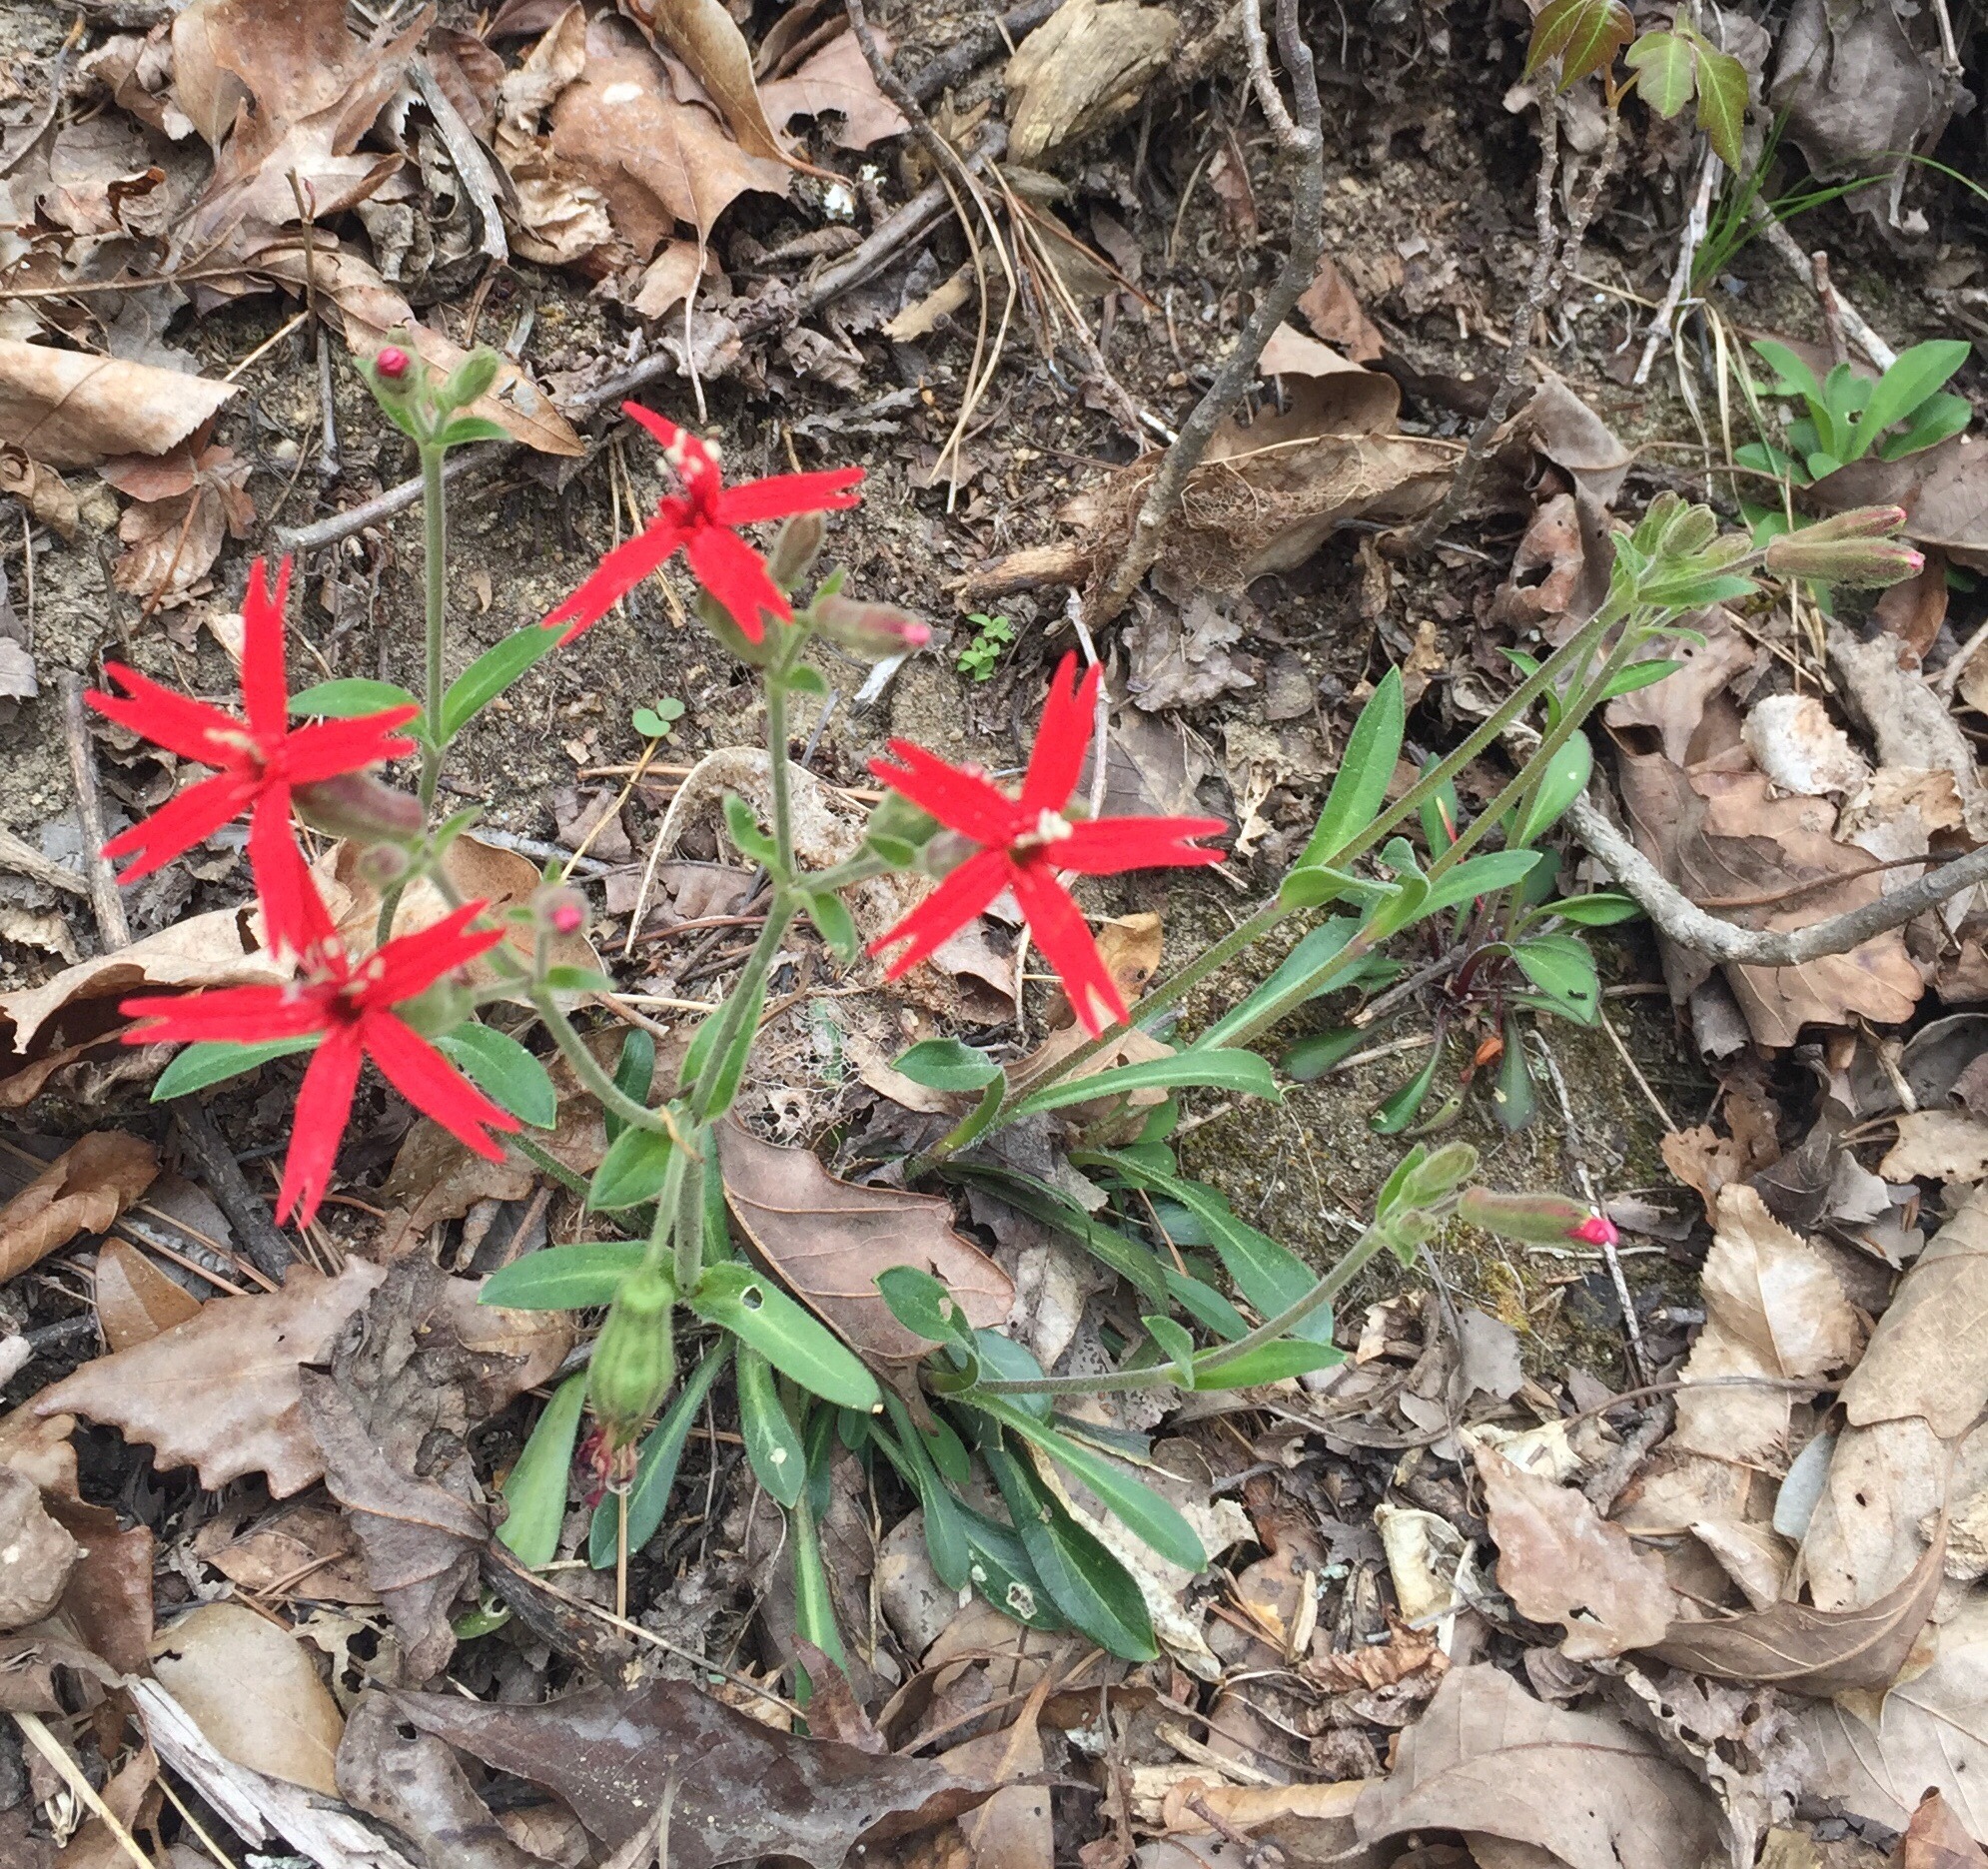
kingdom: Plantae
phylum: Tracheophyta
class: Magnoliopsida
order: Caryophyllales
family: Caryophyllaceae
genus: Silene
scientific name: Silene virginica
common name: Fire-pink
